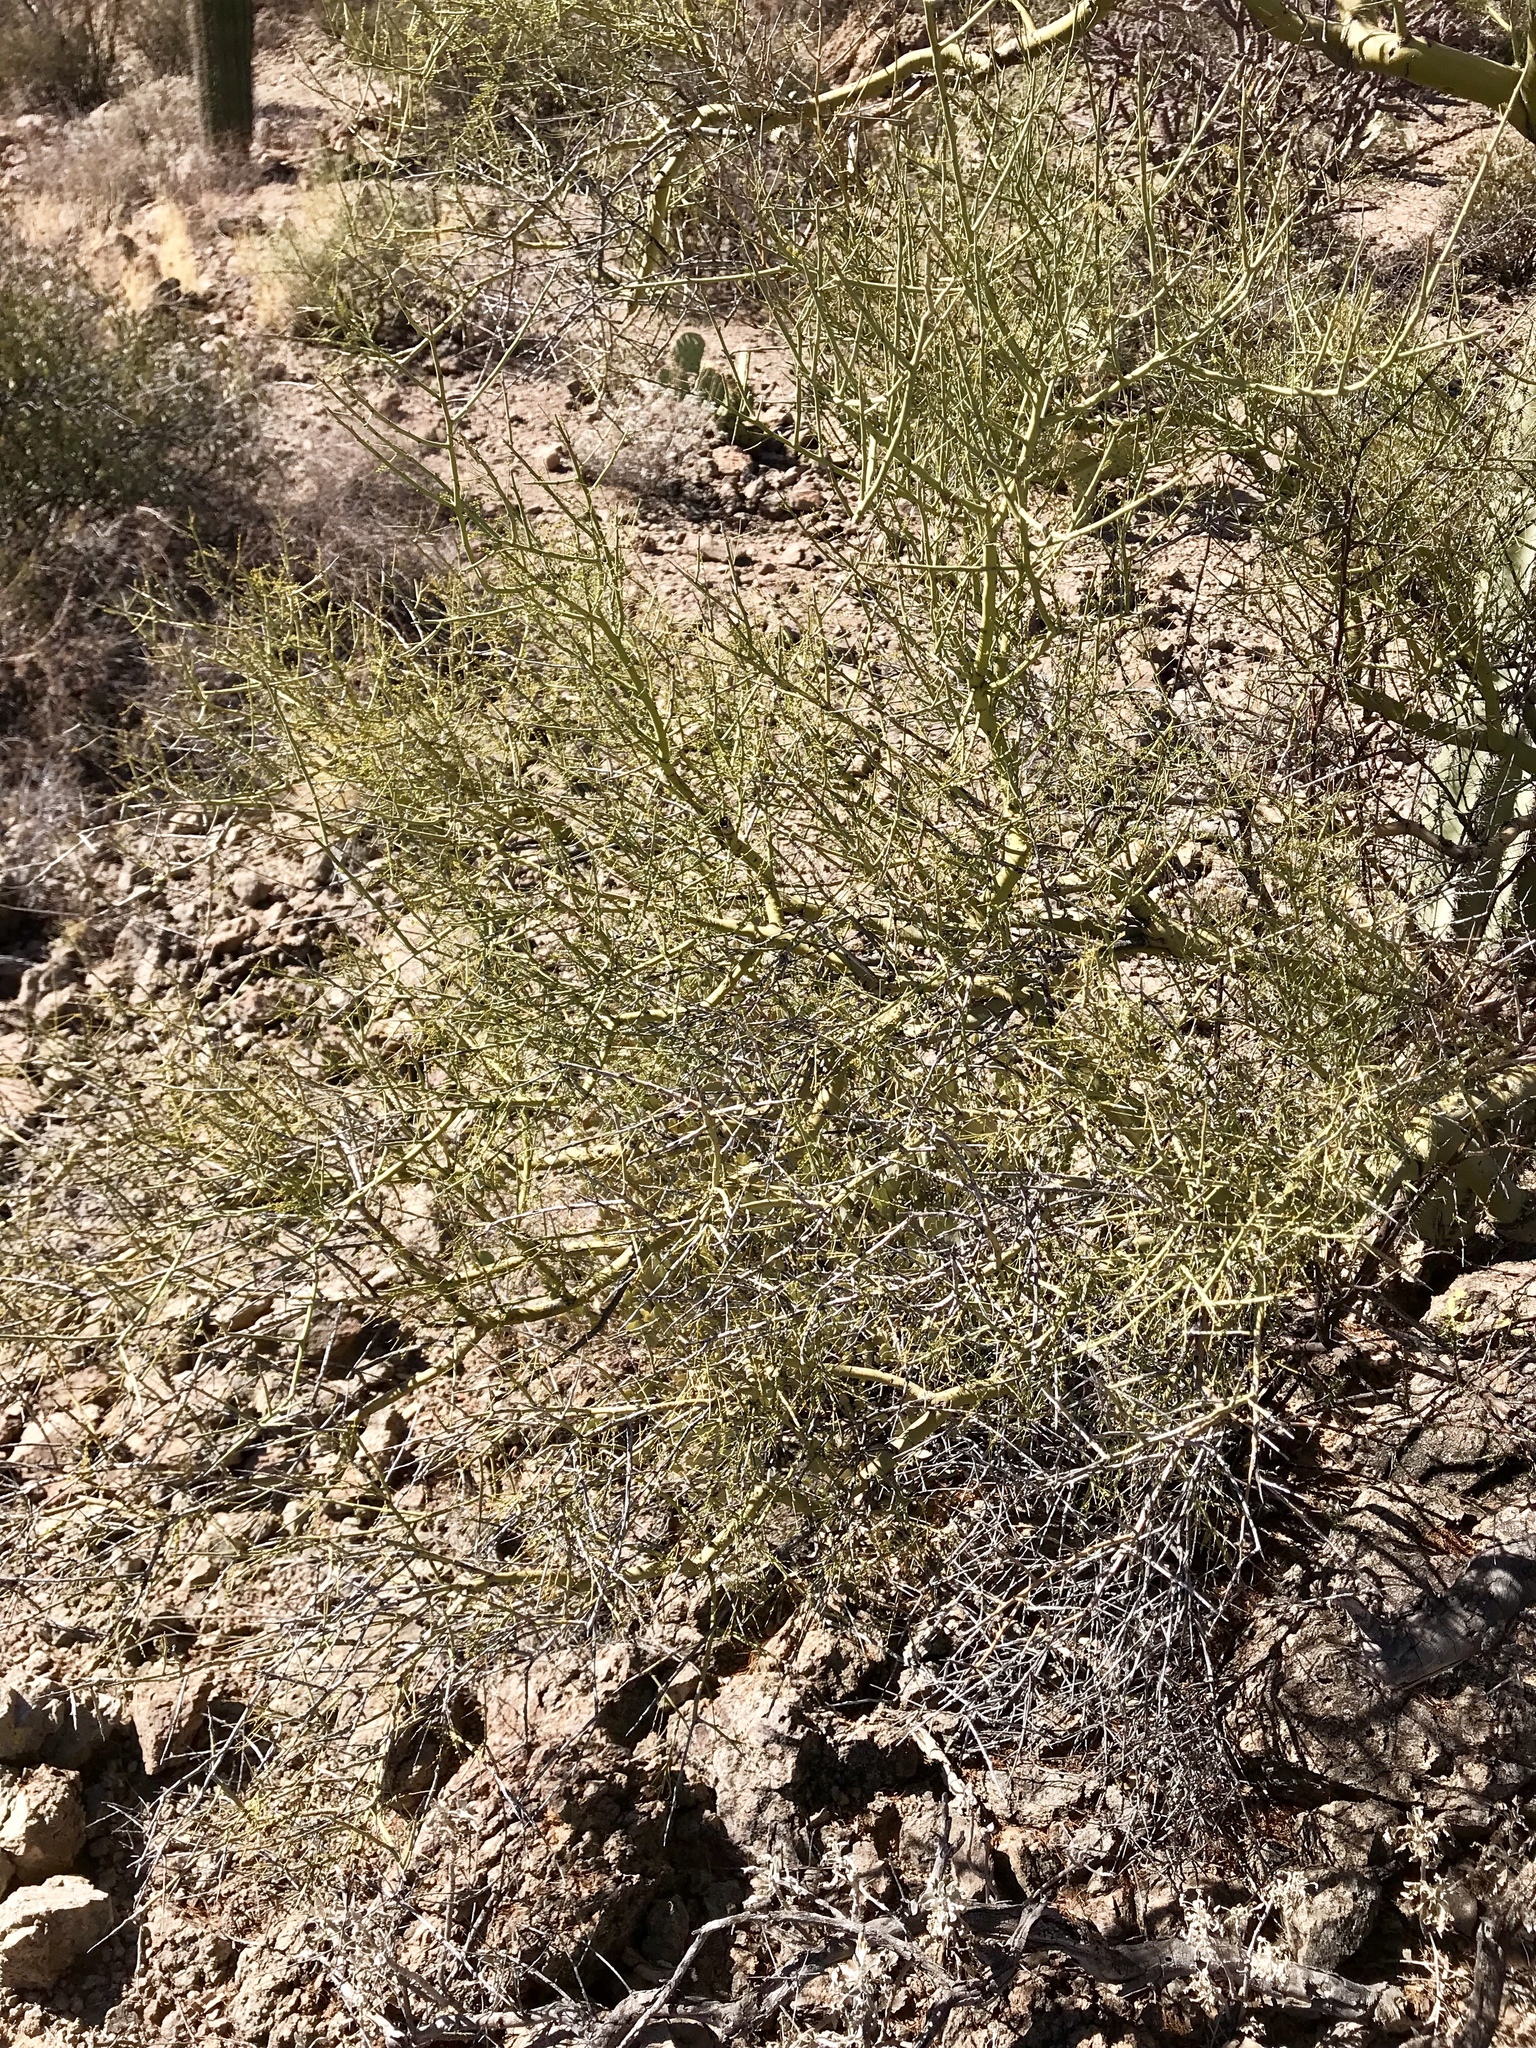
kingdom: Plantae
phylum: Tracheophyta
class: Magnoliopsida
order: Fabales
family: Fabaceae
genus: Parkinsonia
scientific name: Parkinsonia microphylla
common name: Yellow paloverde
